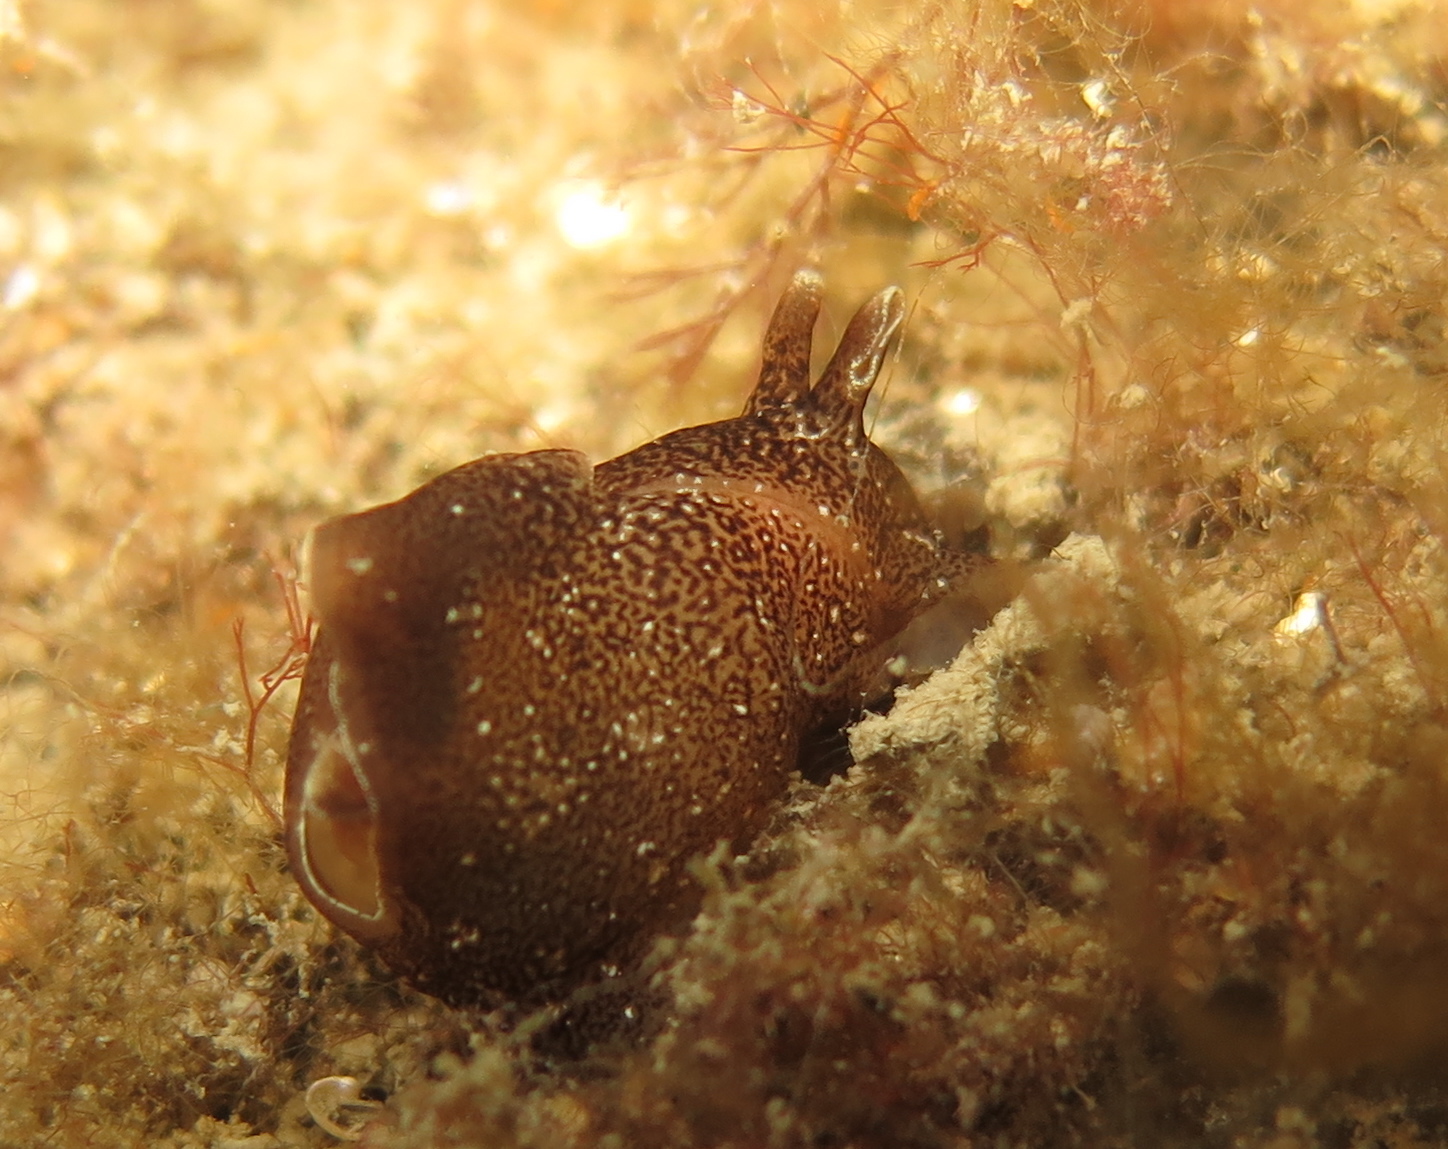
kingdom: Animalia
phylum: Mollusca
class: Gastropoda
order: Aplysiida
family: Aplysiidae
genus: Aplysia
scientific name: Aplysia punctata
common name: Common sea hare
